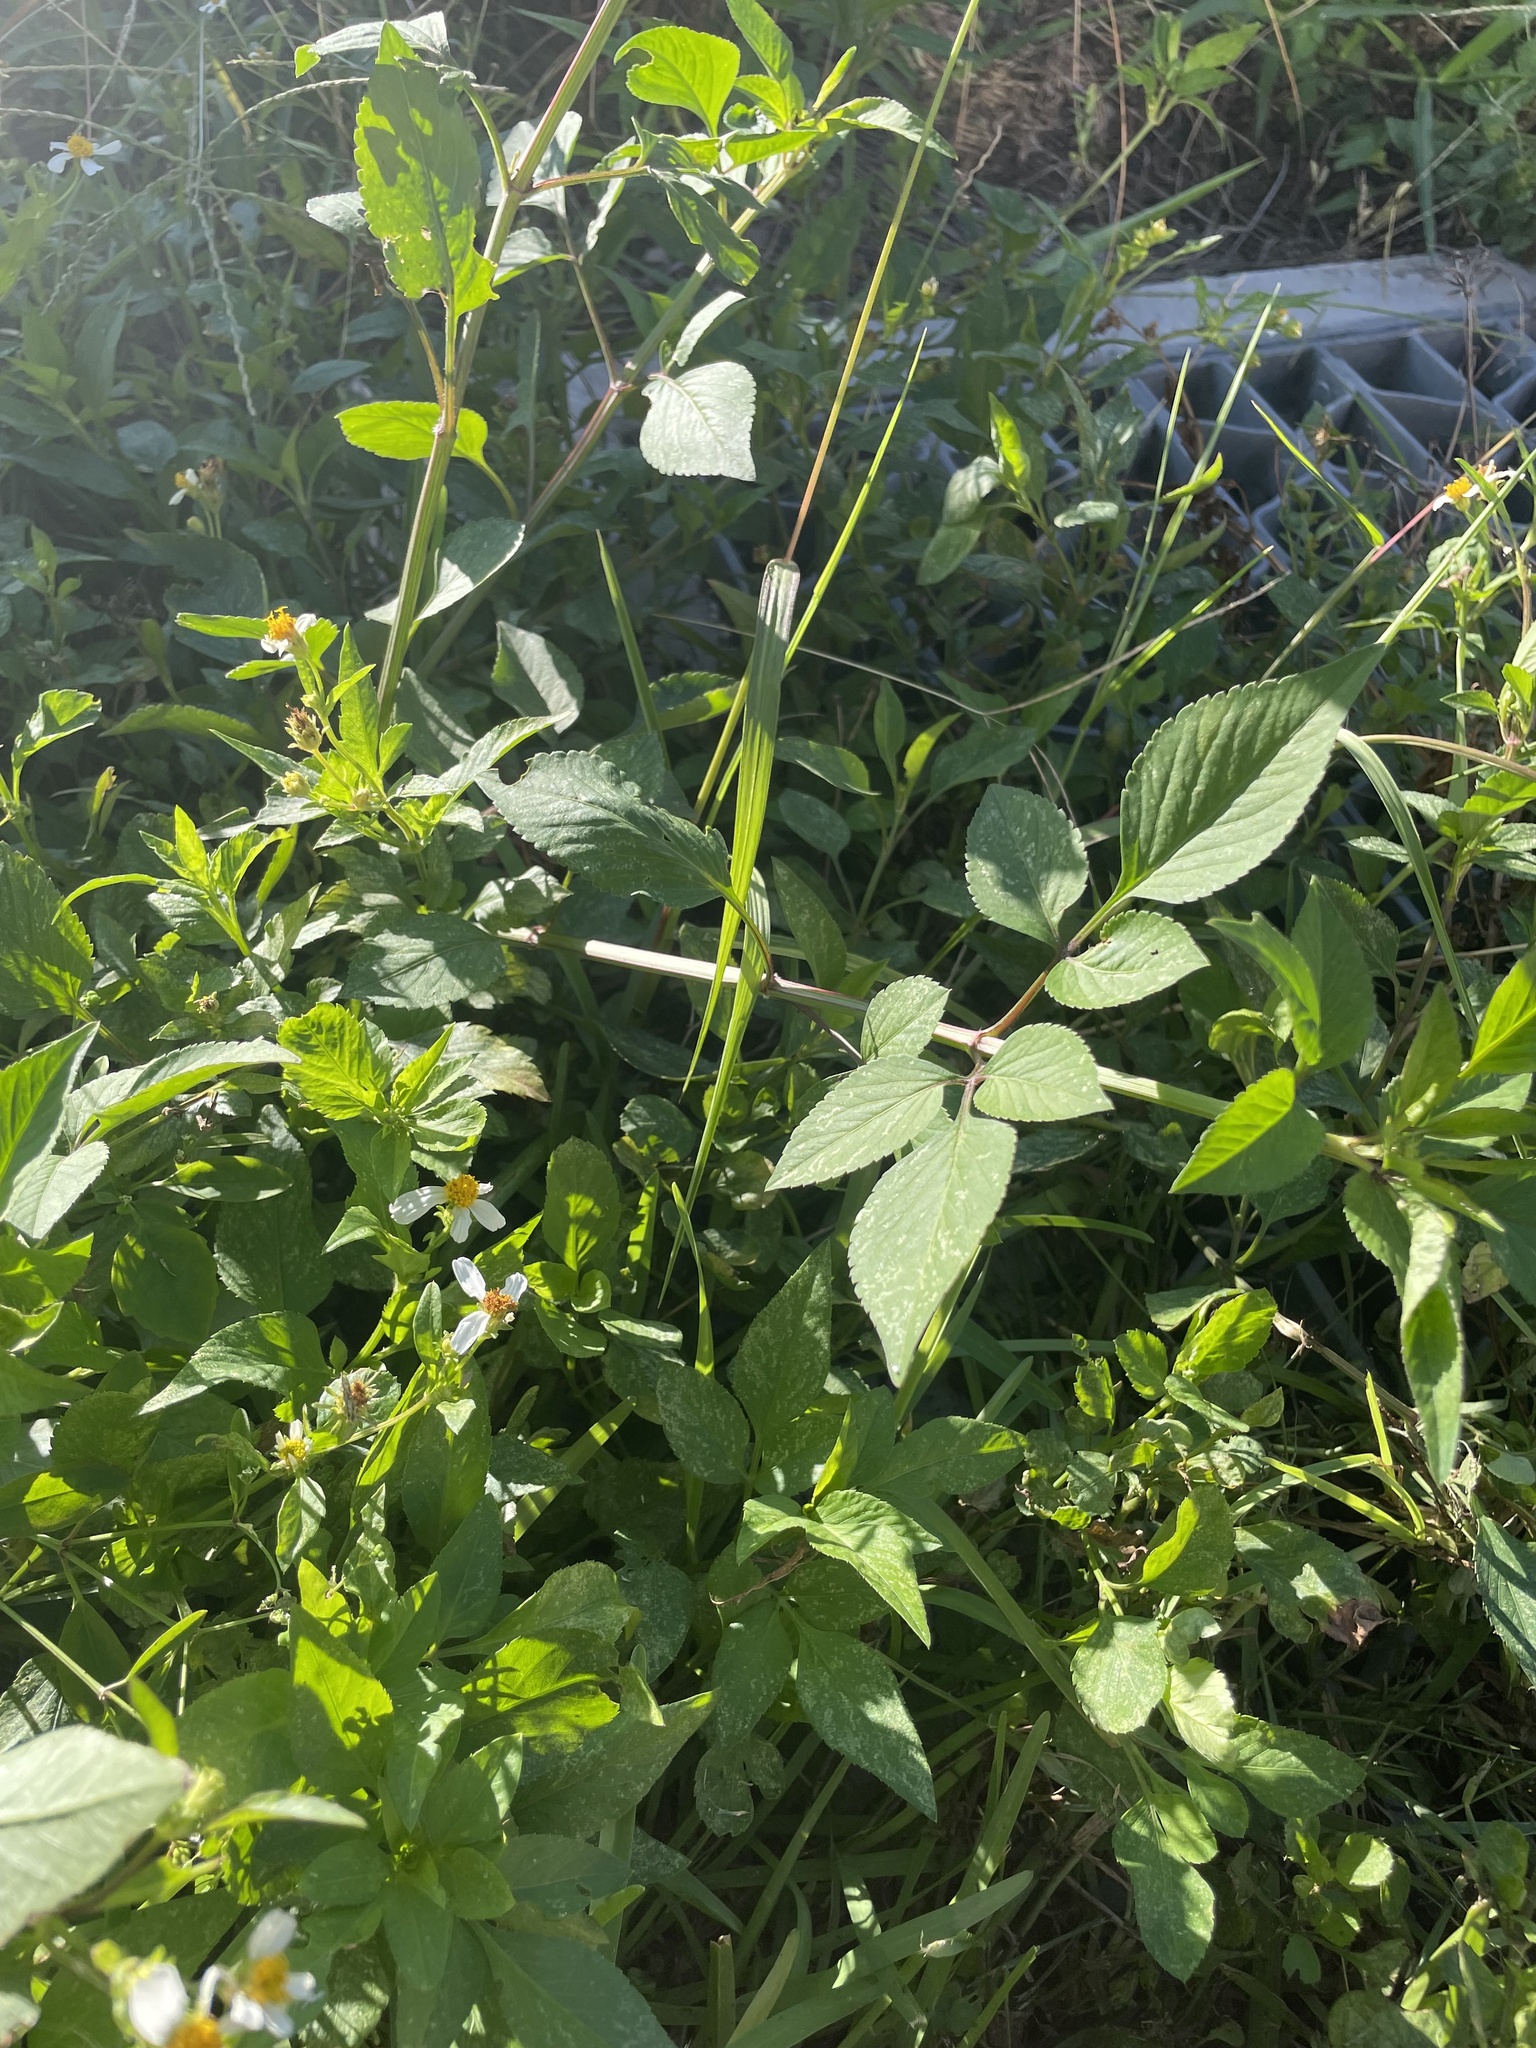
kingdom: Plantae
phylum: Tracheophyta
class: Magnoliopsida
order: Asterales
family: Asteraceae
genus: Bidens
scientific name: Bidens alba
